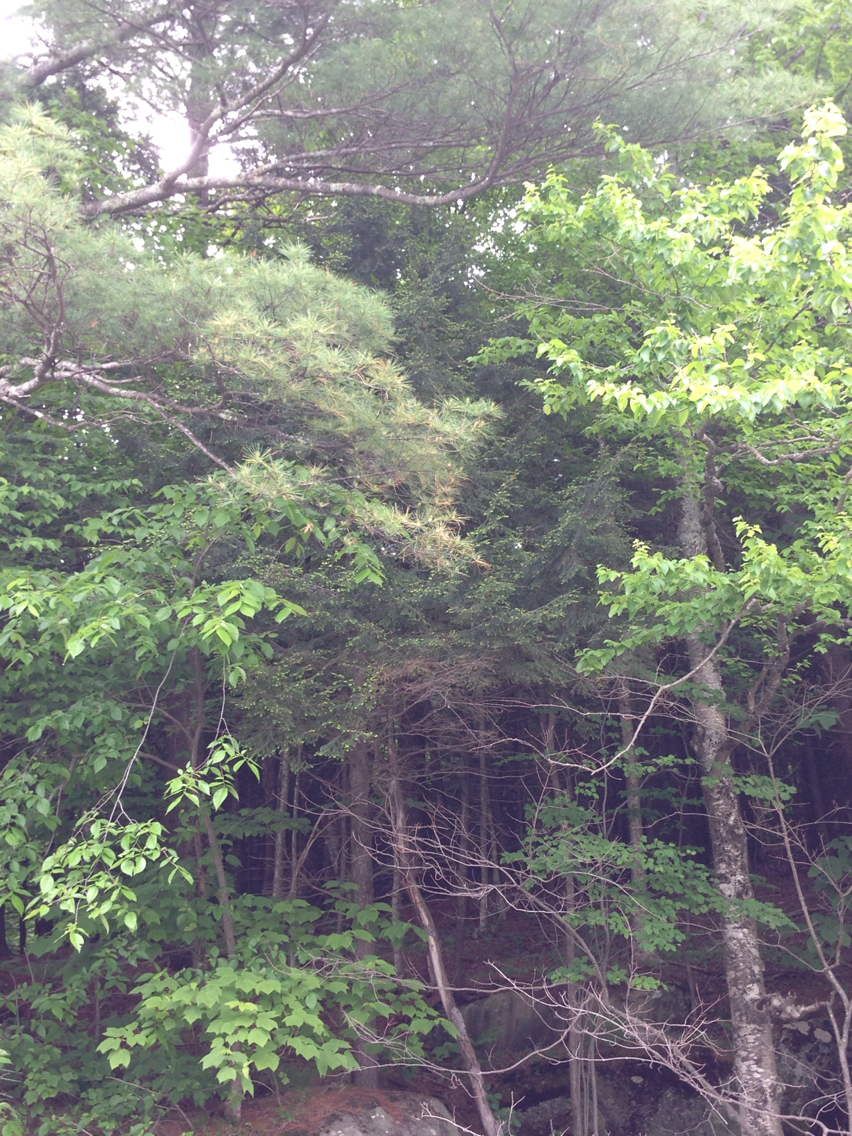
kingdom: Plantae
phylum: Tracheophyta
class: Pinopsida
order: Pinales
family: Pinaceae
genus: Tsuga
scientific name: Tsuga canadensis
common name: Eastern hemlock
